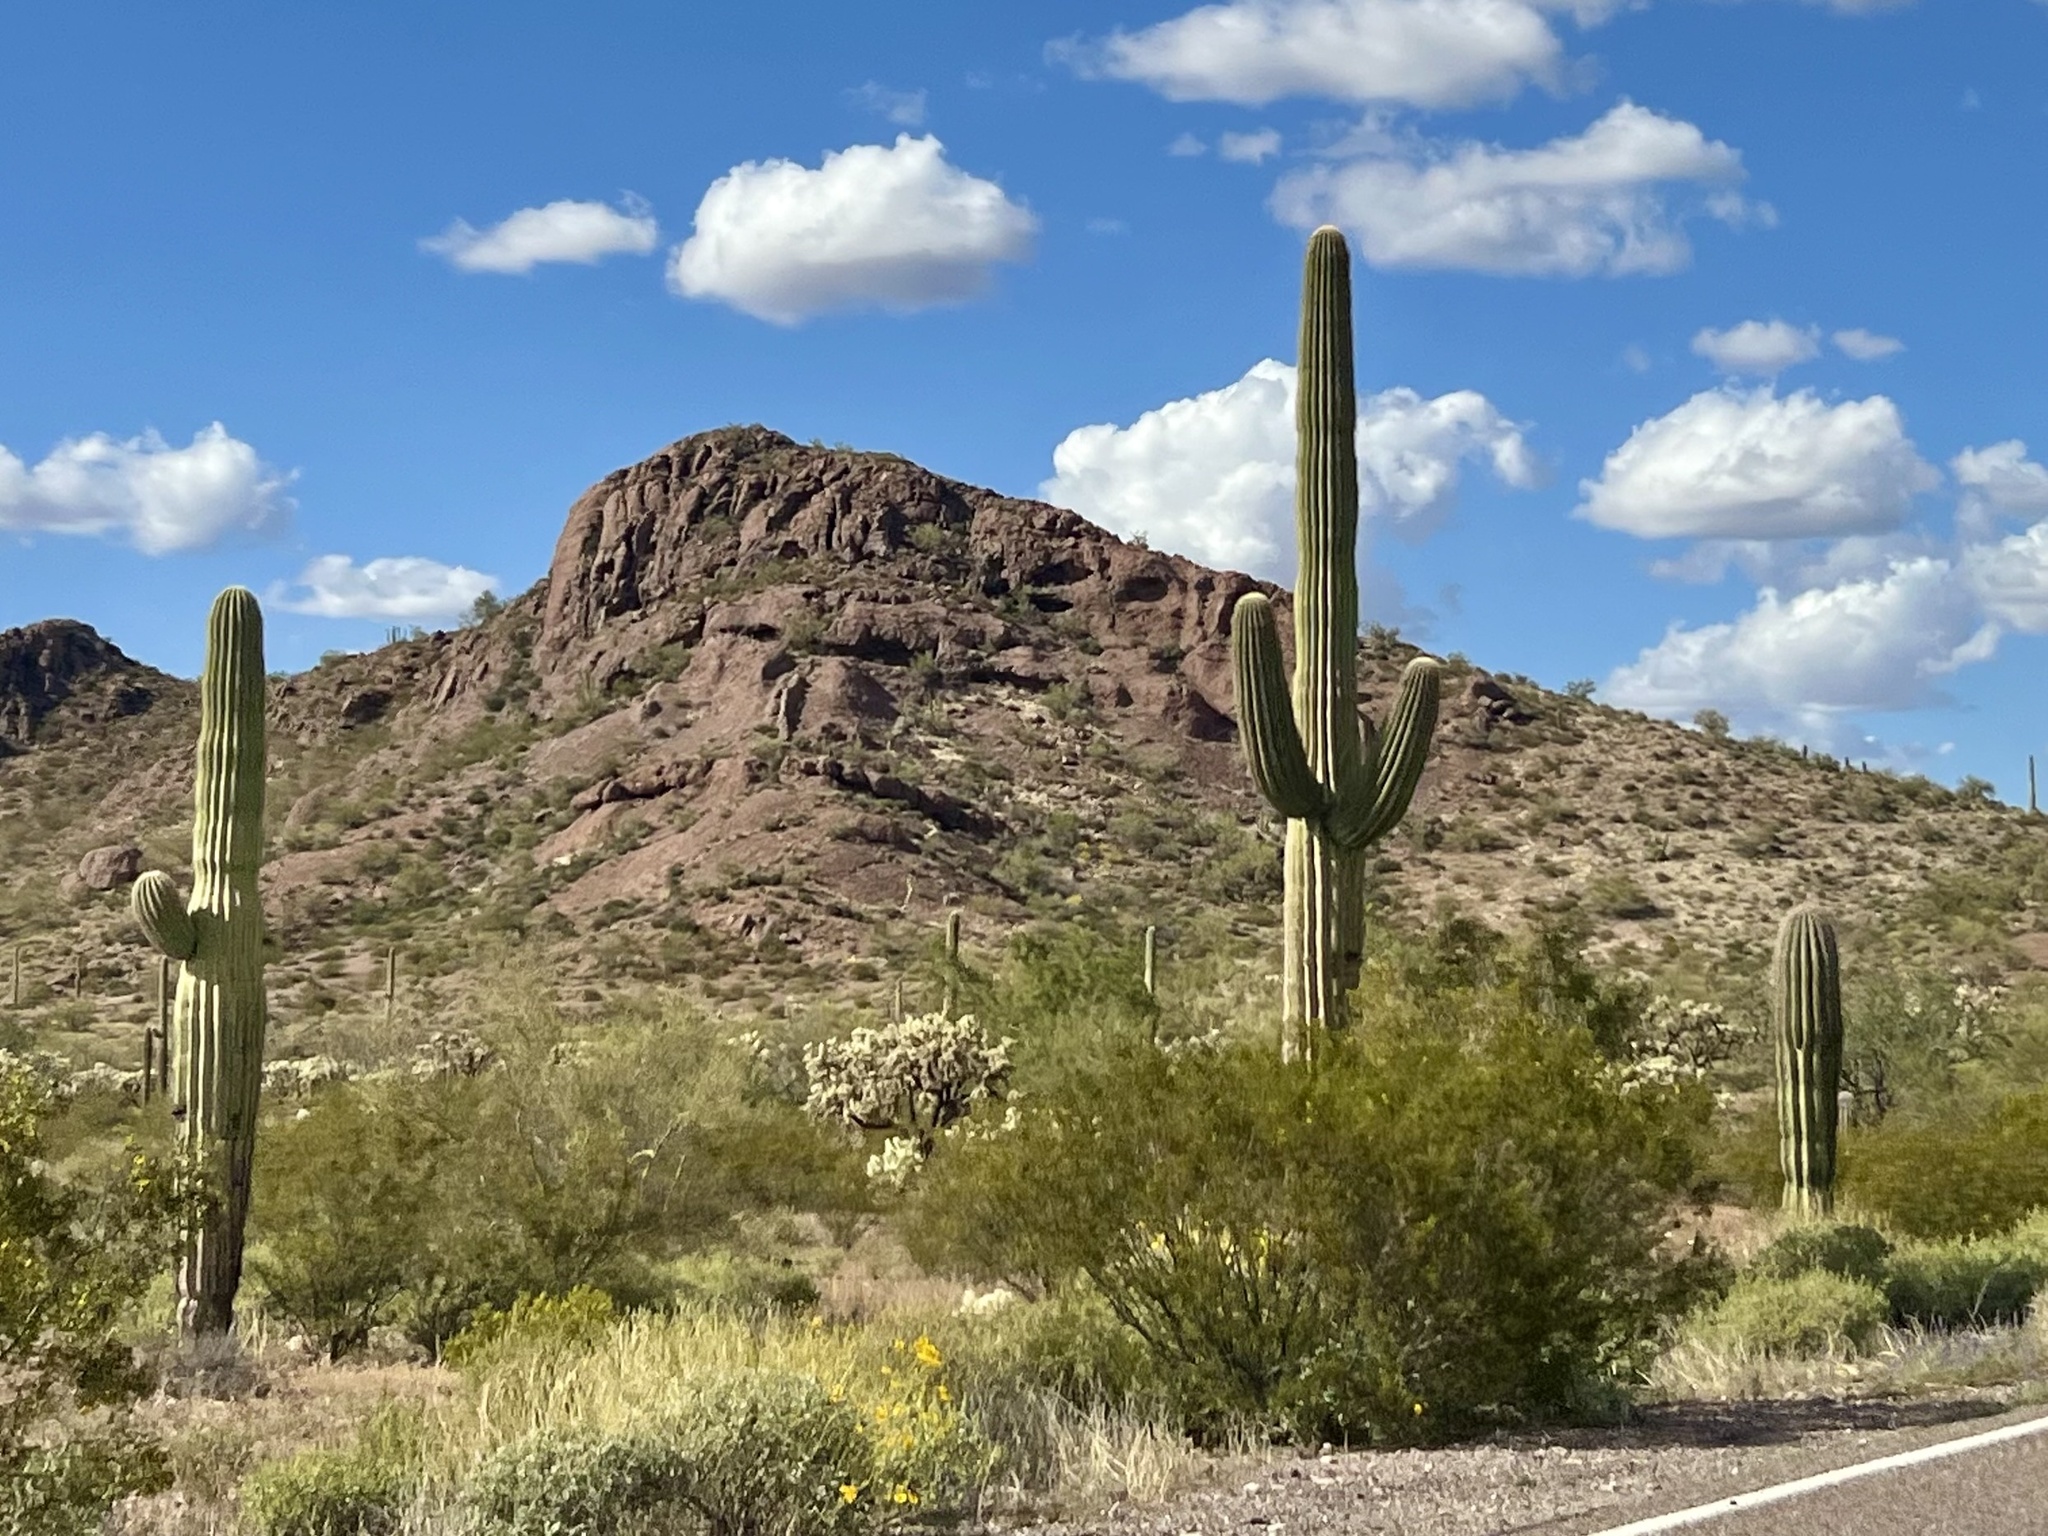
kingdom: Plantae
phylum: Tracheophyta
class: Magnoliopsida
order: Caryophyllales
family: Cactaceae
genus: Carnegiea
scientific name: Carnegiea gigantea
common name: Saguaro
